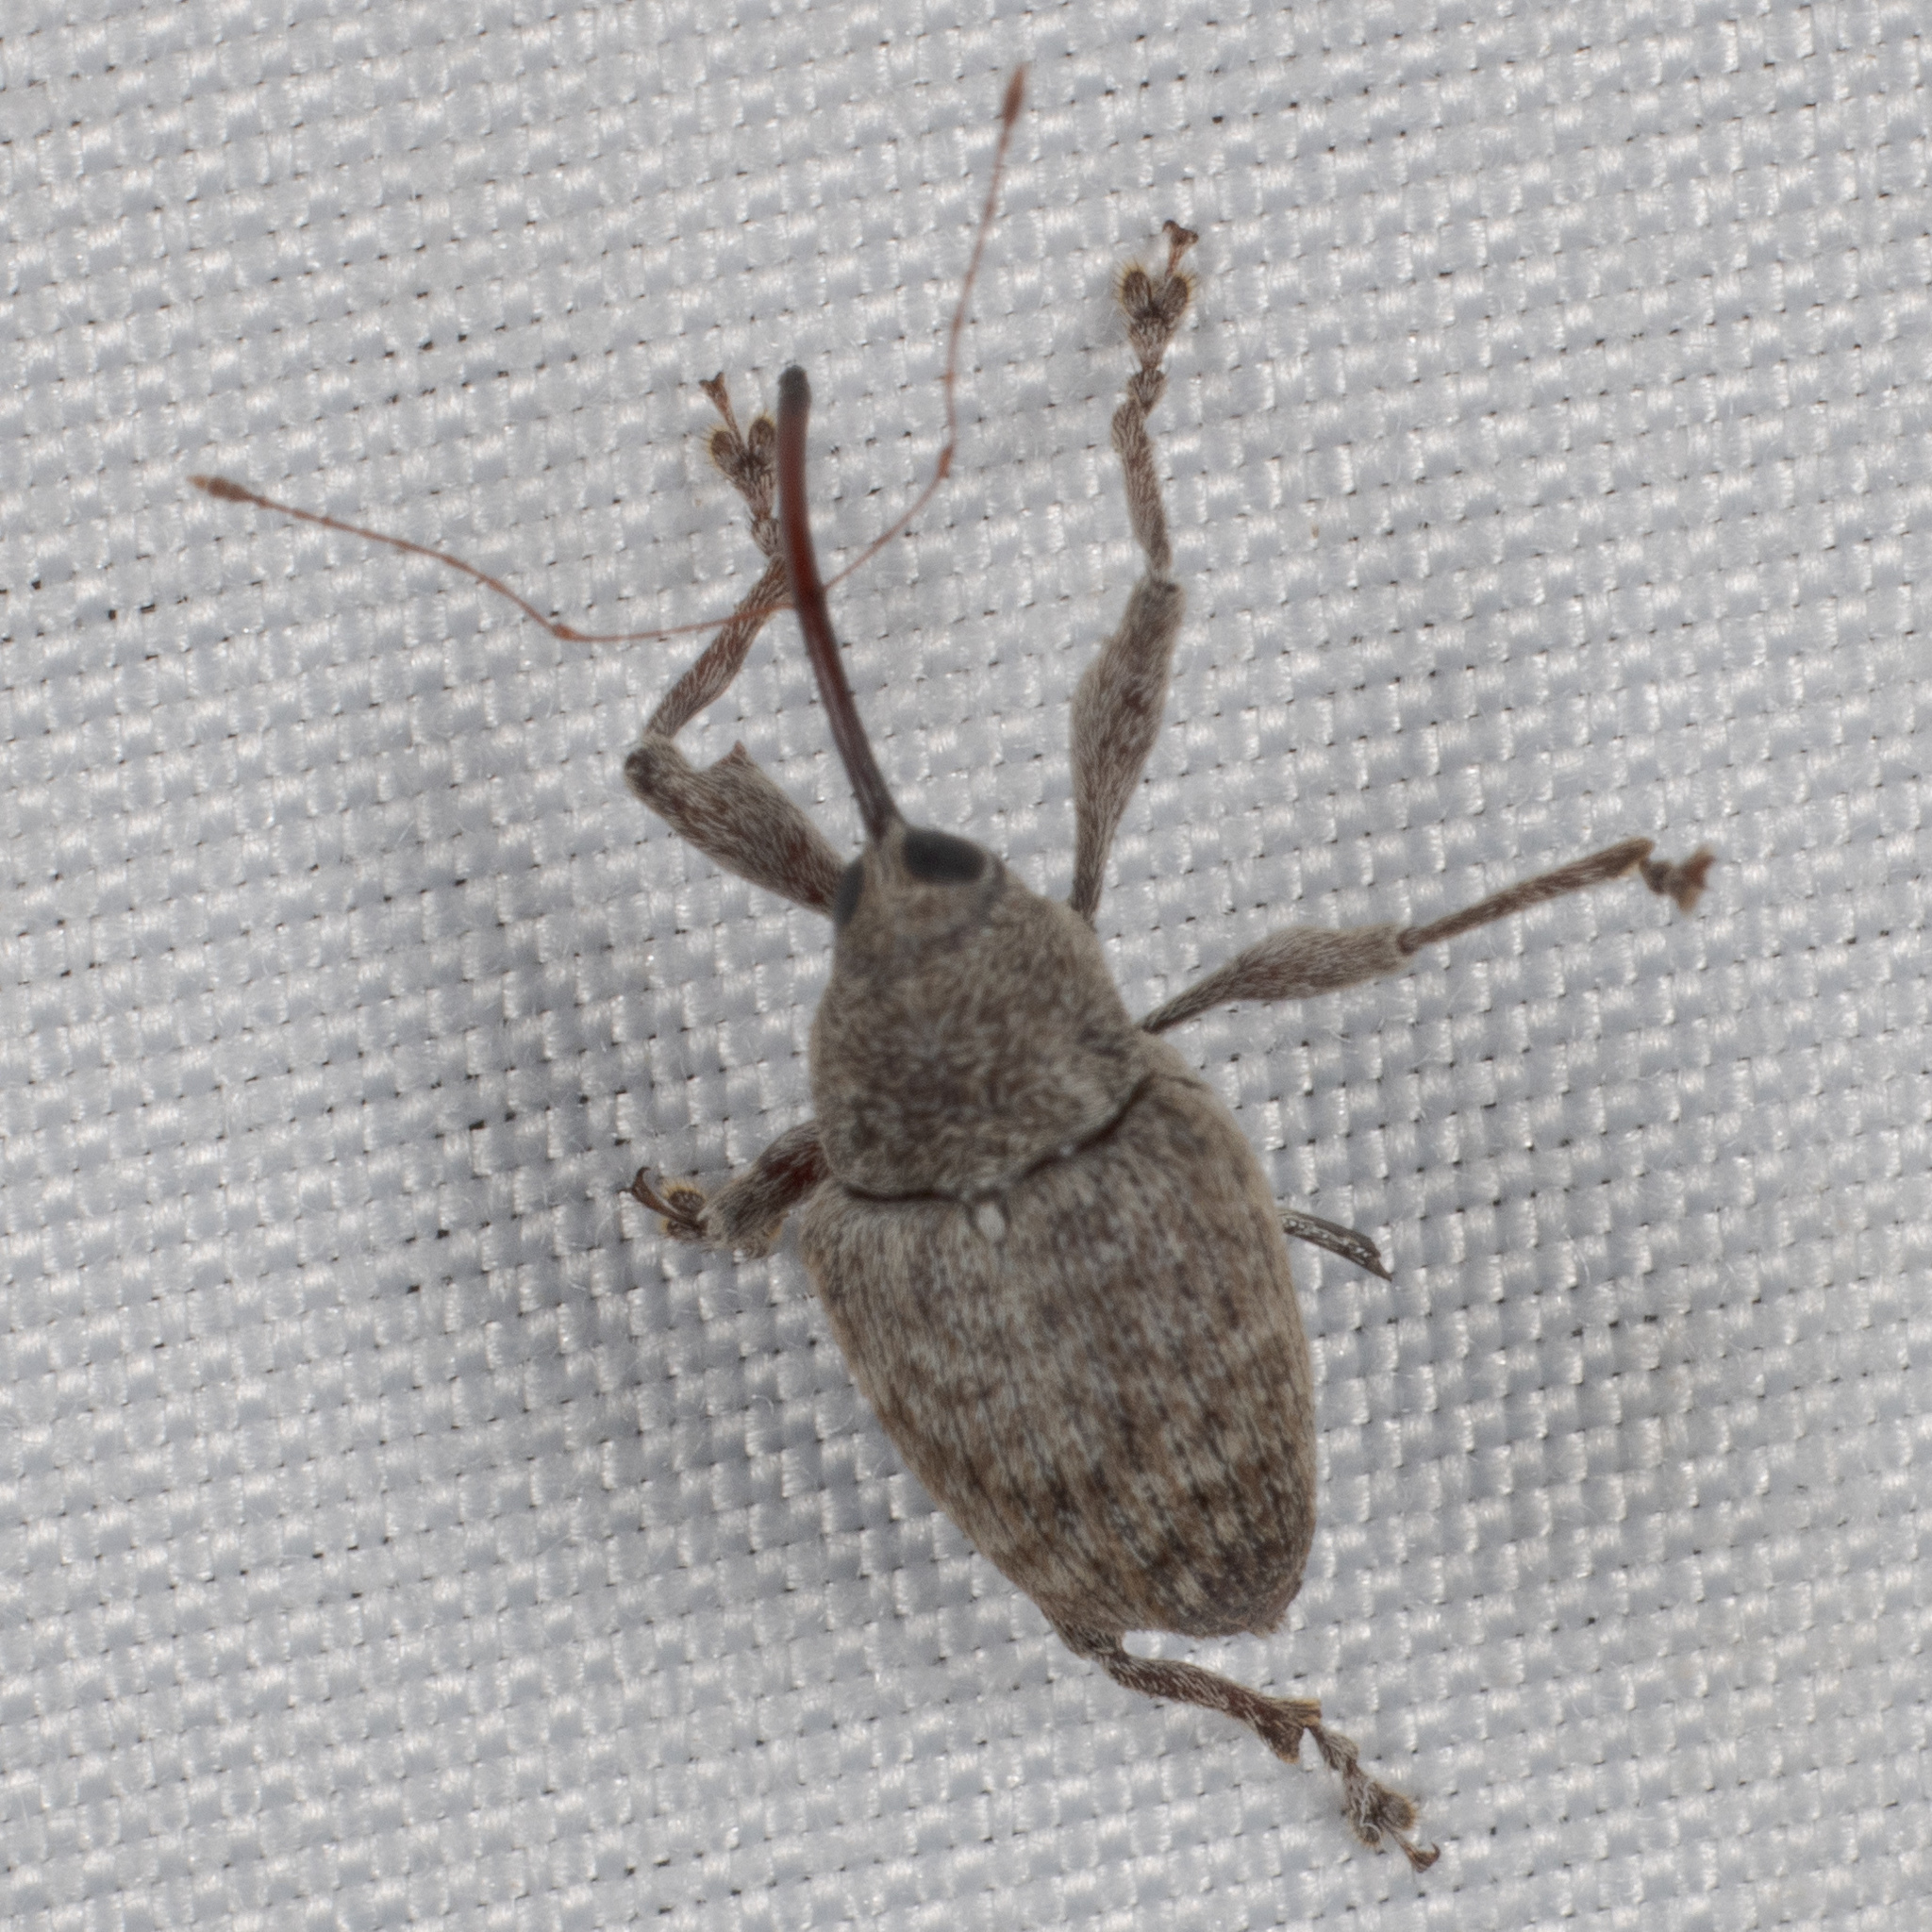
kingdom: Animalia
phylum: Arthropoda
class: Insecta
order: Coleoptera
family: Curculionidae
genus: Curculio
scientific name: Curculio
